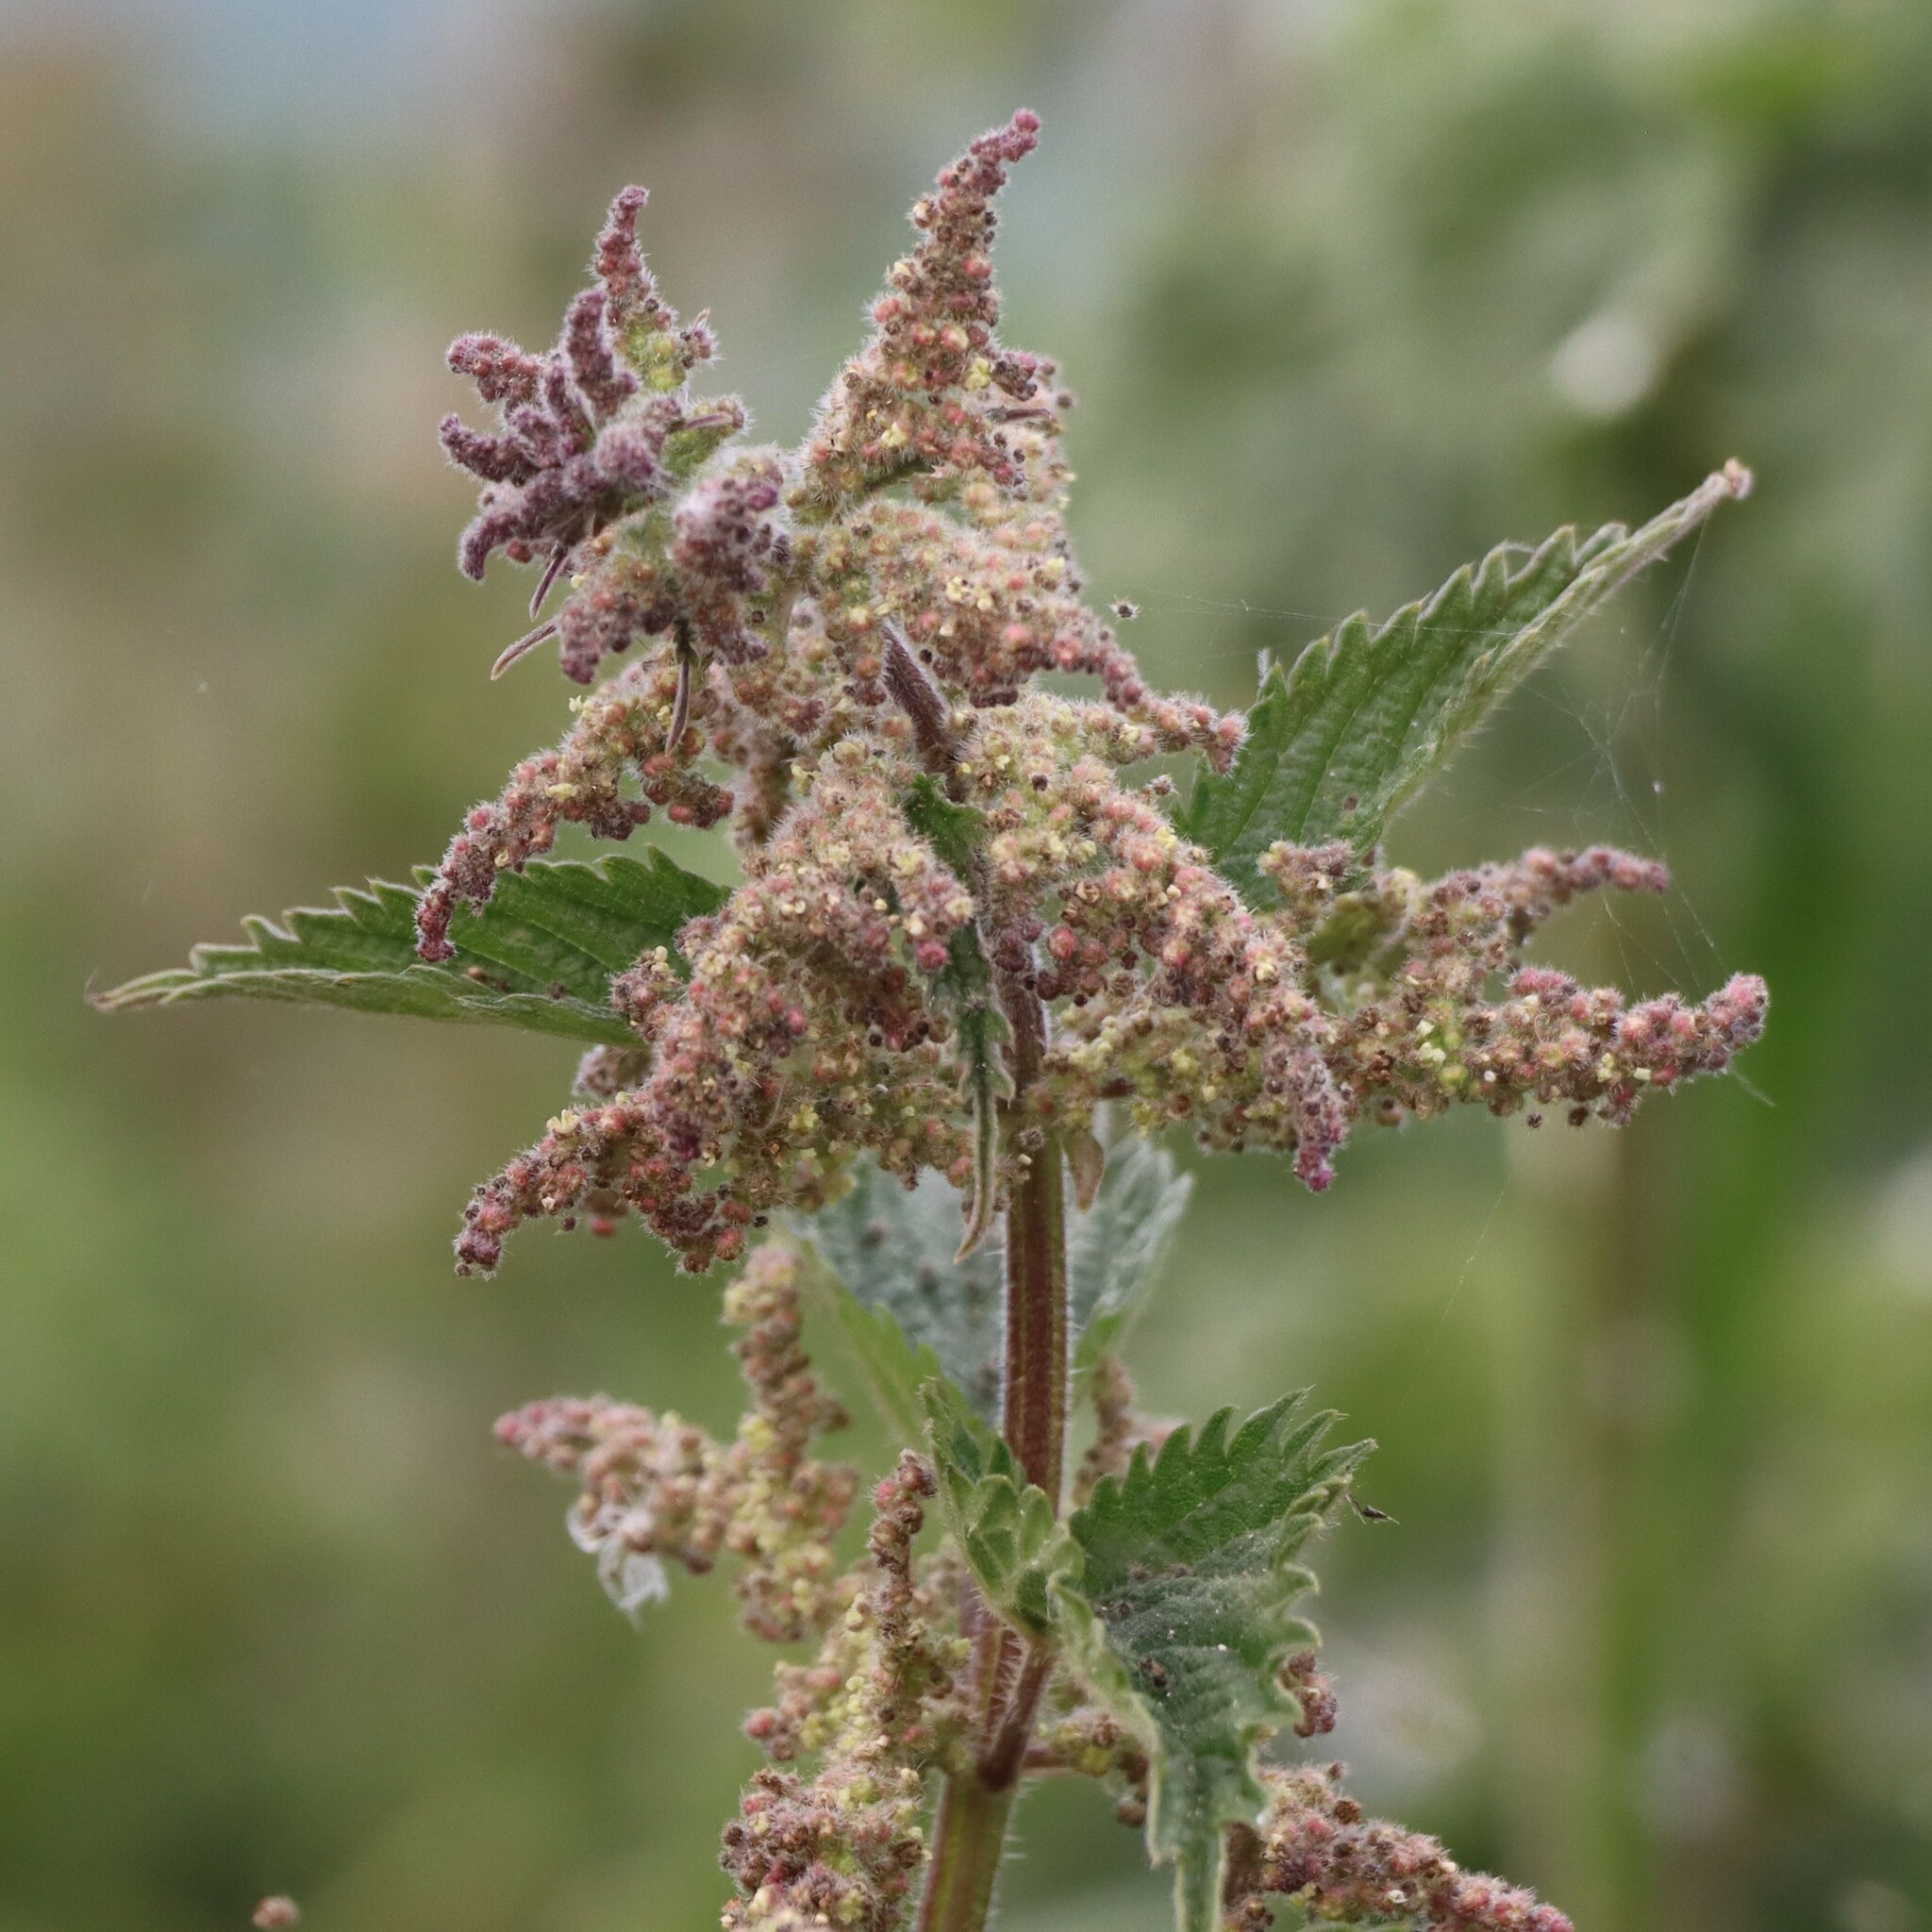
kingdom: Plantae
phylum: Tracheophyta
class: Magnoliopsida
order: Rosales
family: Urticaceae
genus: Urtica
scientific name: Urtica dioica
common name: Common nettle
